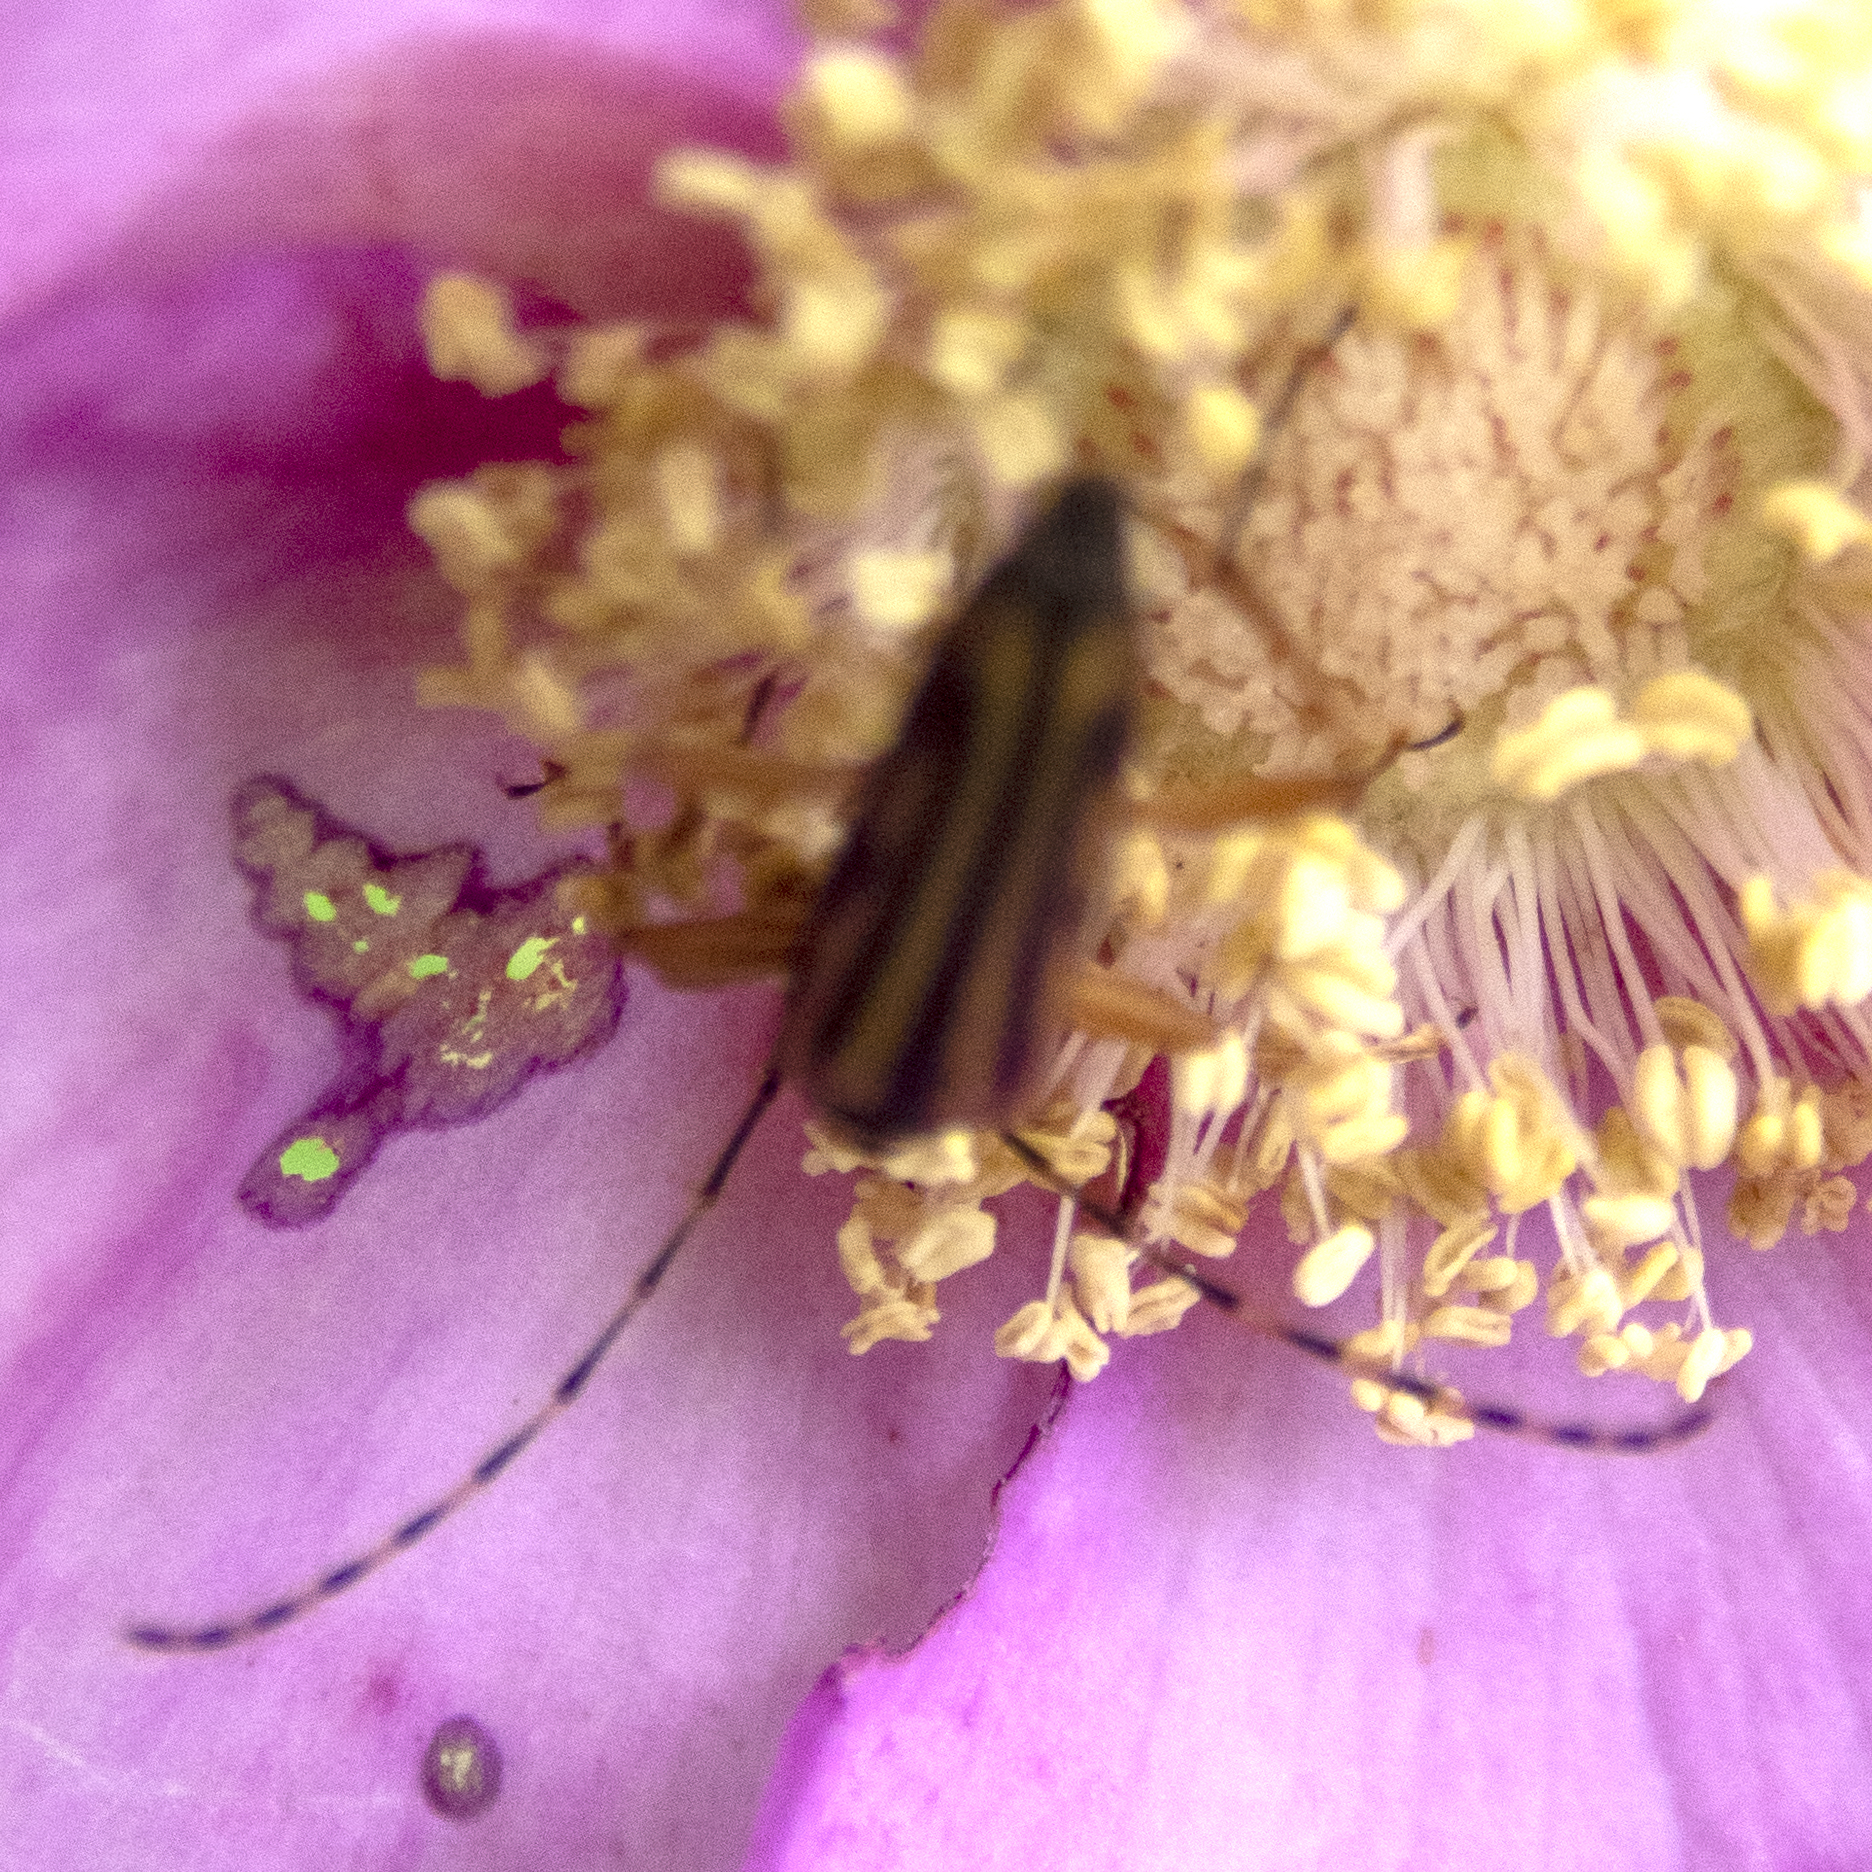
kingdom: Animalia
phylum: Arthropoda
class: Insecta
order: Coleoptera
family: Cerambycidae
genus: Analeptura
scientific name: Analeptura lineola
